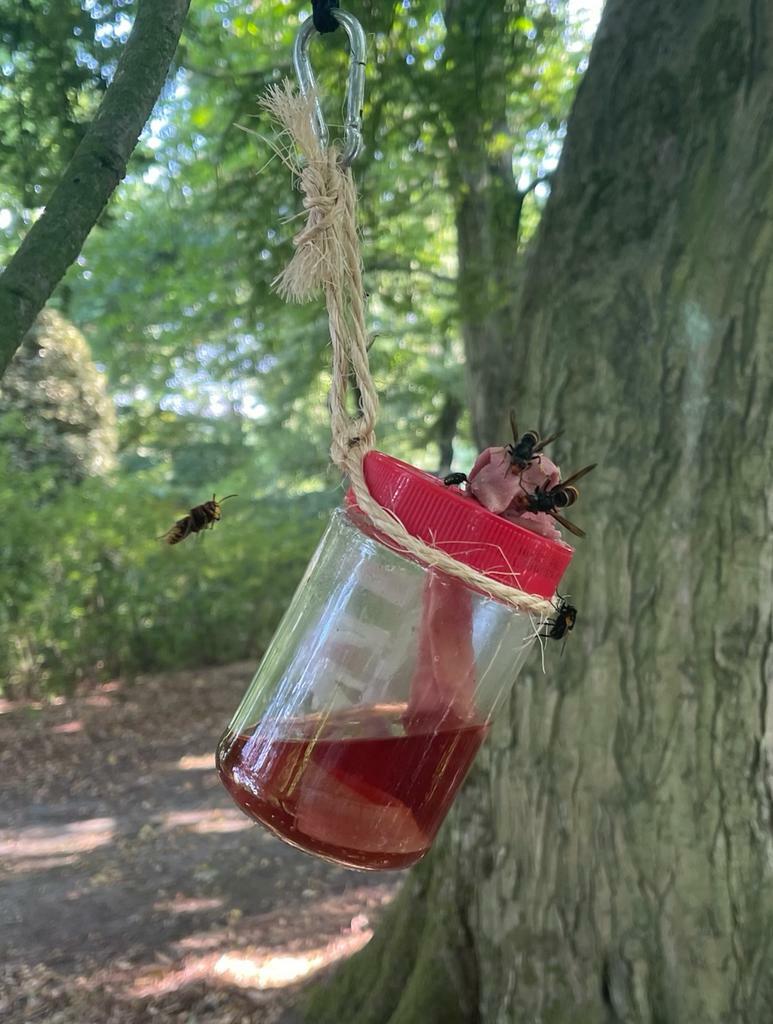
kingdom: Animalia
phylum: Arthropoda
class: Insecta
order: Hymenoptera
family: Vespidae
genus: Vespa
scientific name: Vespa velutina
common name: Asian hornet
